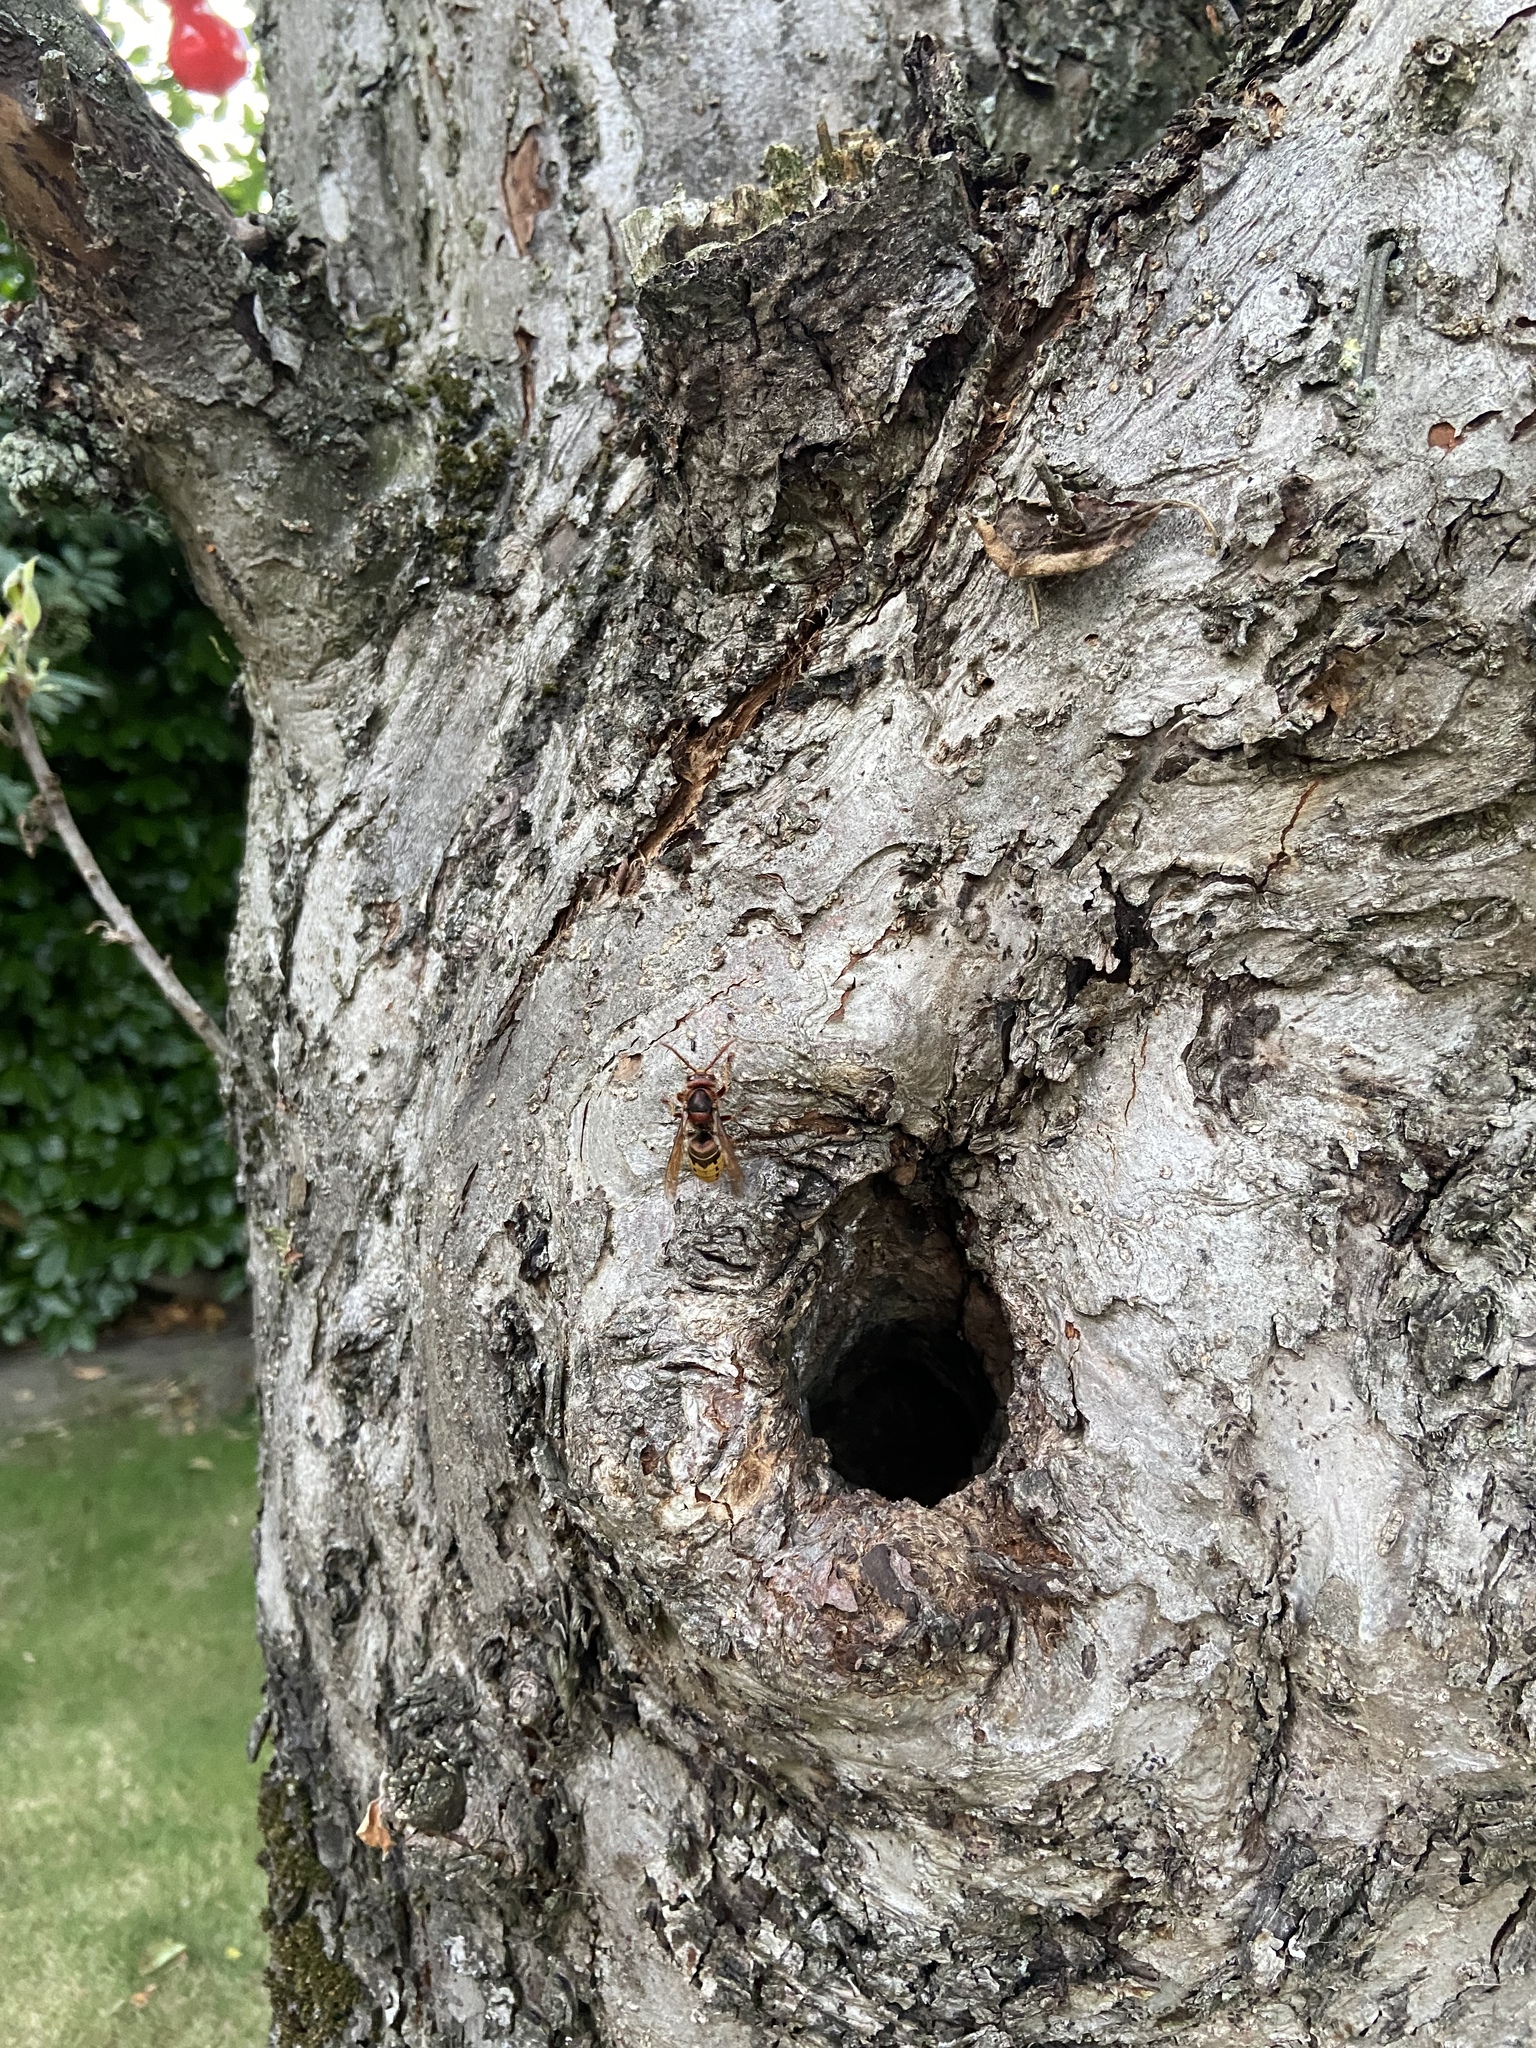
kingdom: Animalia
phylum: Arthropoda
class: Insecta
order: Hymenoptera
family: Vespidae
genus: Vespa
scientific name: Vespa crabro
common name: Hornet
